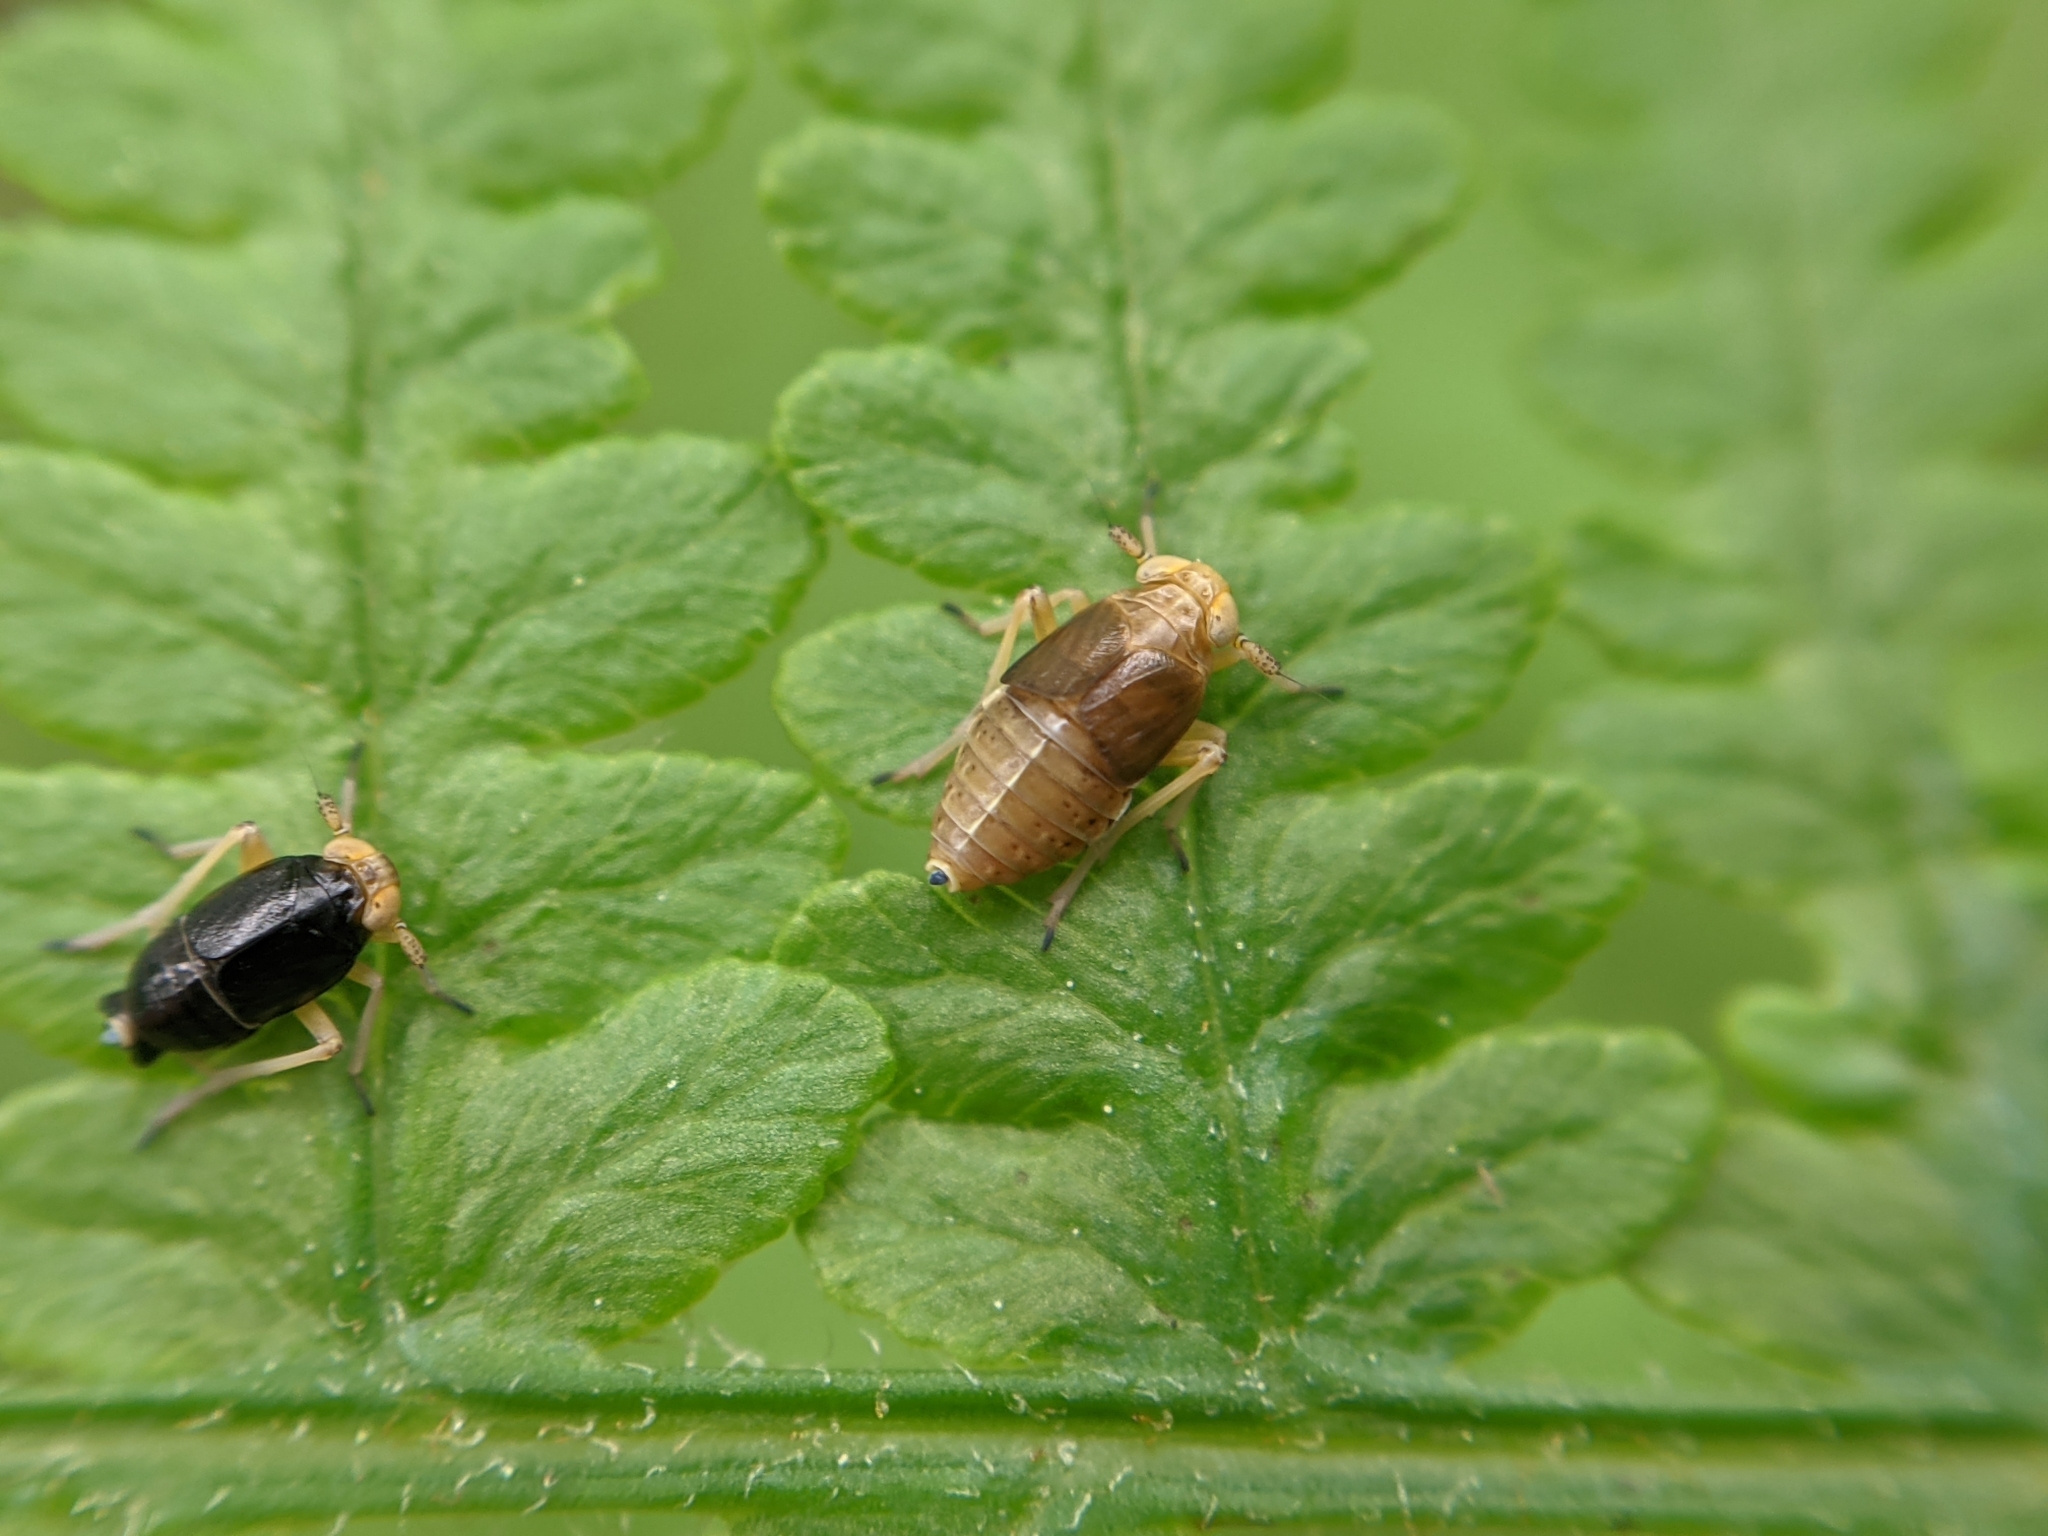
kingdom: Animalia
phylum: Arthropoda
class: Insecta
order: Hemiptera
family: Delphacidae
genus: Ditropis
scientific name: Ditropis pteridis
